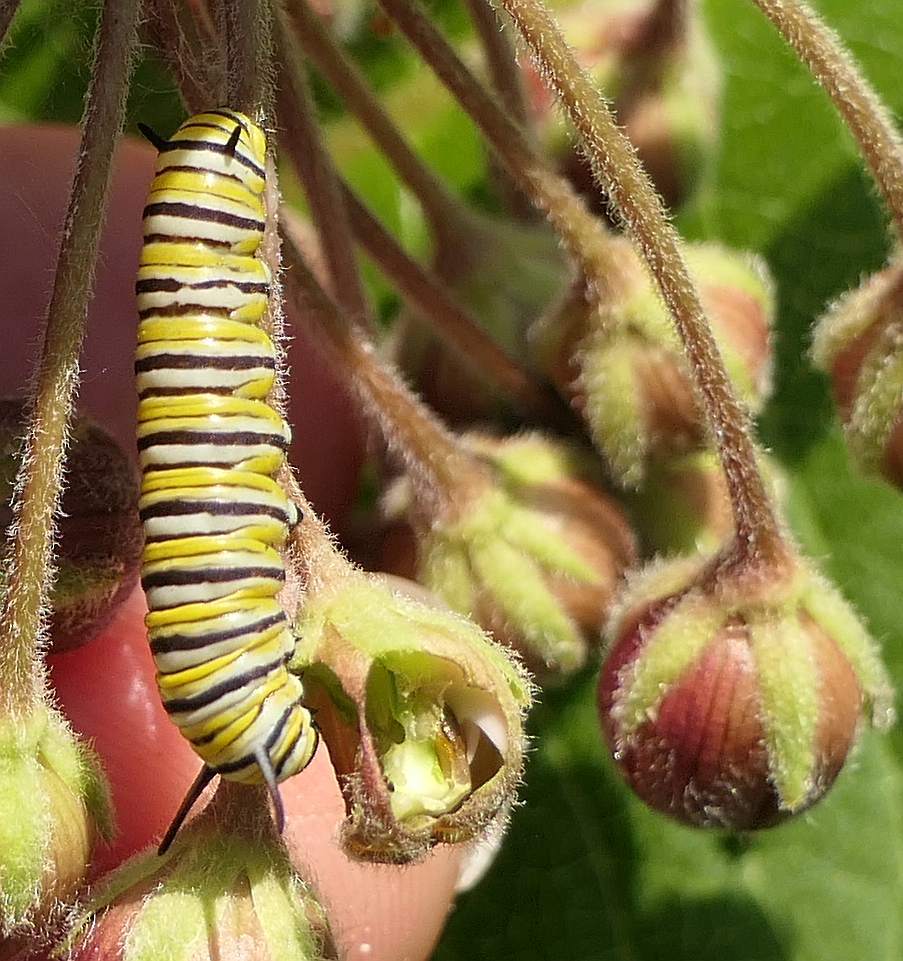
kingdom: Animalia
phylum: Arthropoda
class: Insecta
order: Lepidoptera
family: Nymphalidae
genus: Danaus
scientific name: Danaus plexippus
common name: Monarch
